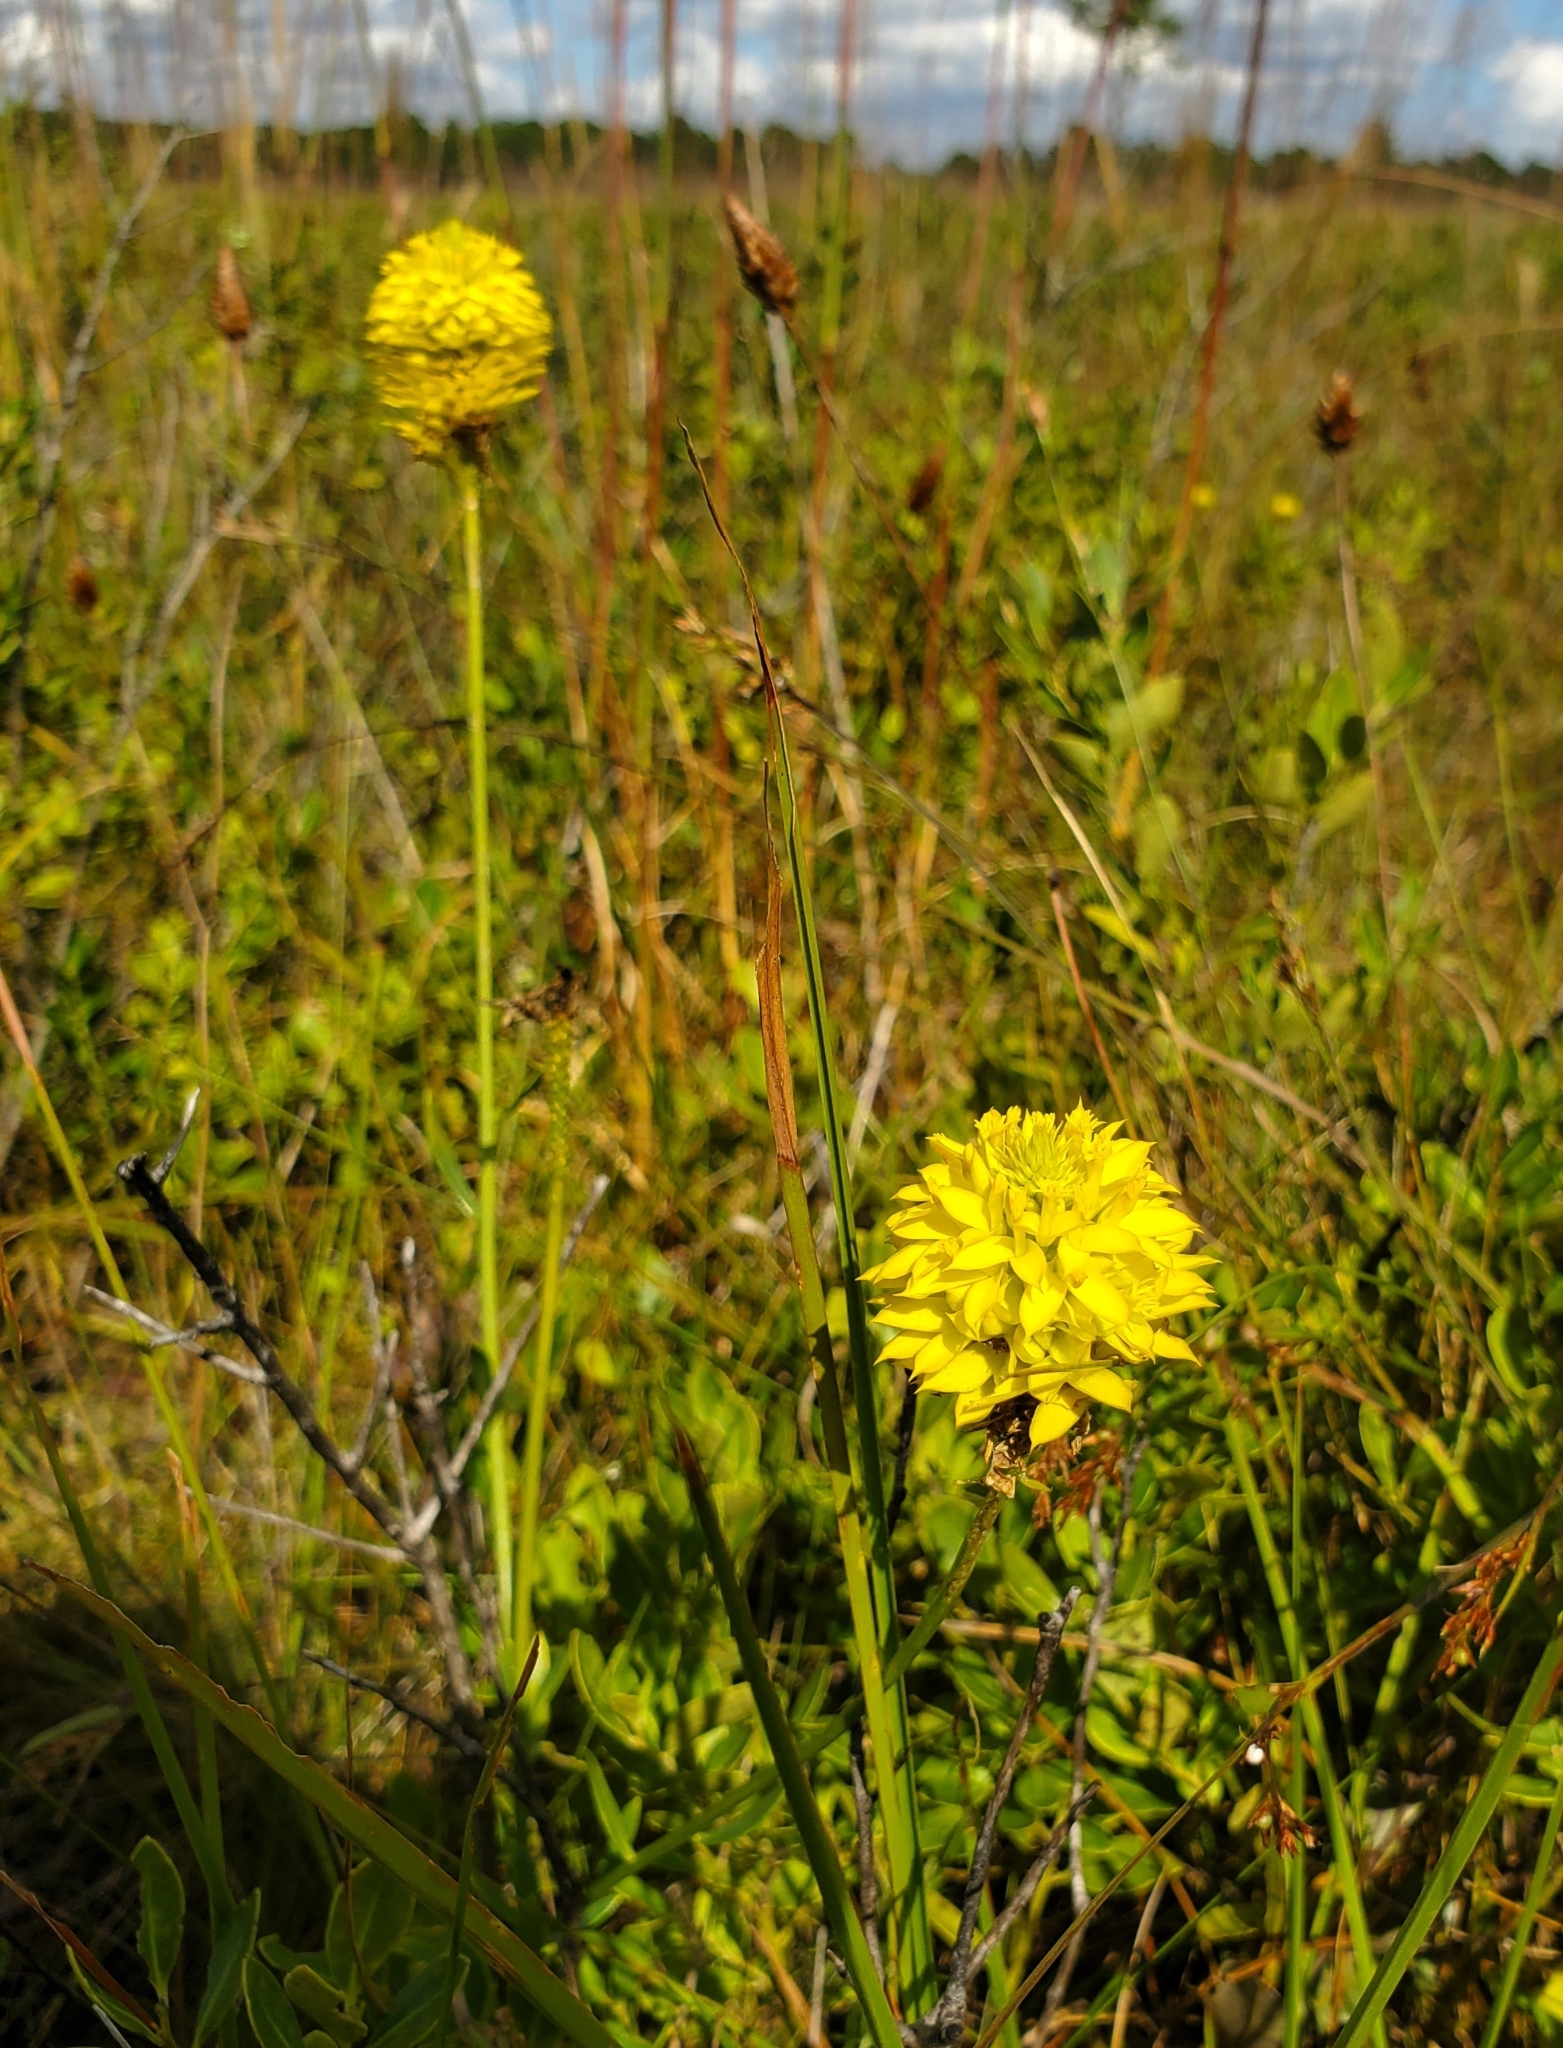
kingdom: Plantae
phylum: Tracheophyta
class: Magnoliopsida
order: Fabales
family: Polygalaceae
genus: Polygala
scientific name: Polygala rugelii
